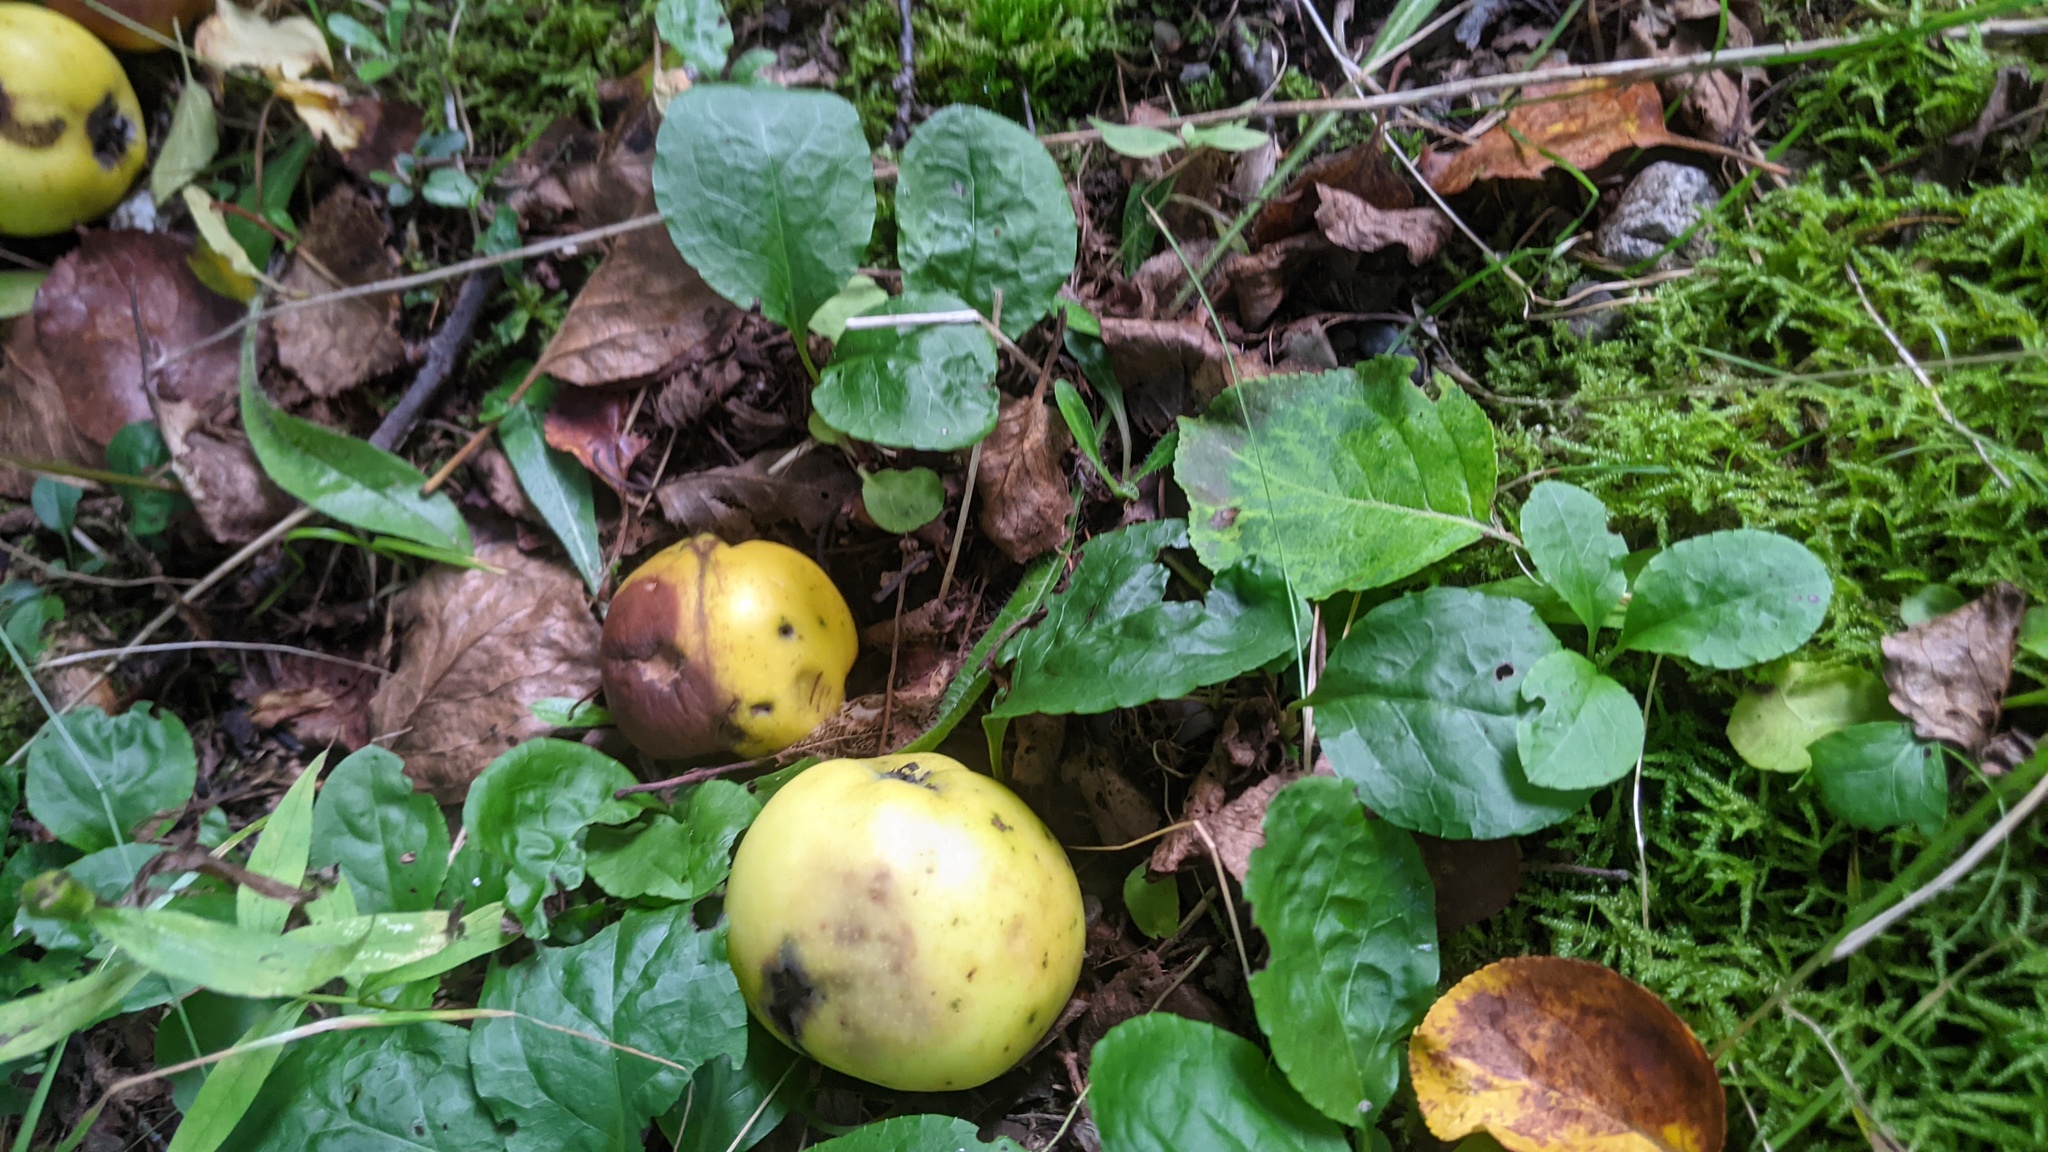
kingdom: Plantae
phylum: Tracheophyta
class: Magnoliopsida
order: Ericales
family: Ericaceae
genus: Pyrola
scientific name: Pyrola elliptica
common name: Shinleaf
